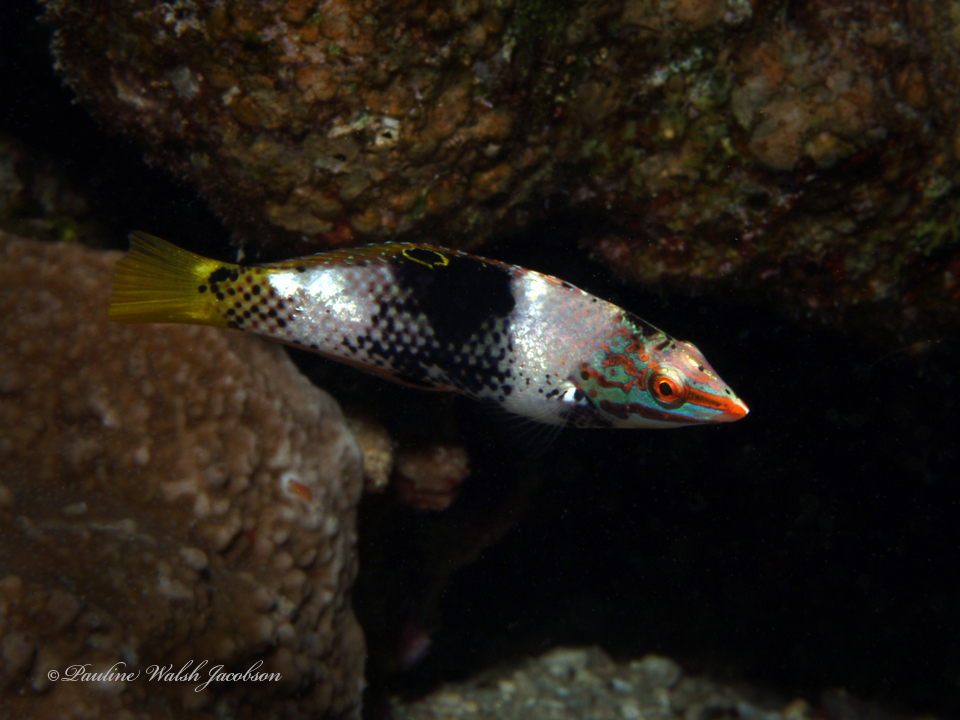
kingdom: Animalia
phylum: Chordata
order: Perciformes
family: Labridae
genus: Halichoeres
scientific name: Halichoeres hortulanus
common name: Checkerboard wrasse
